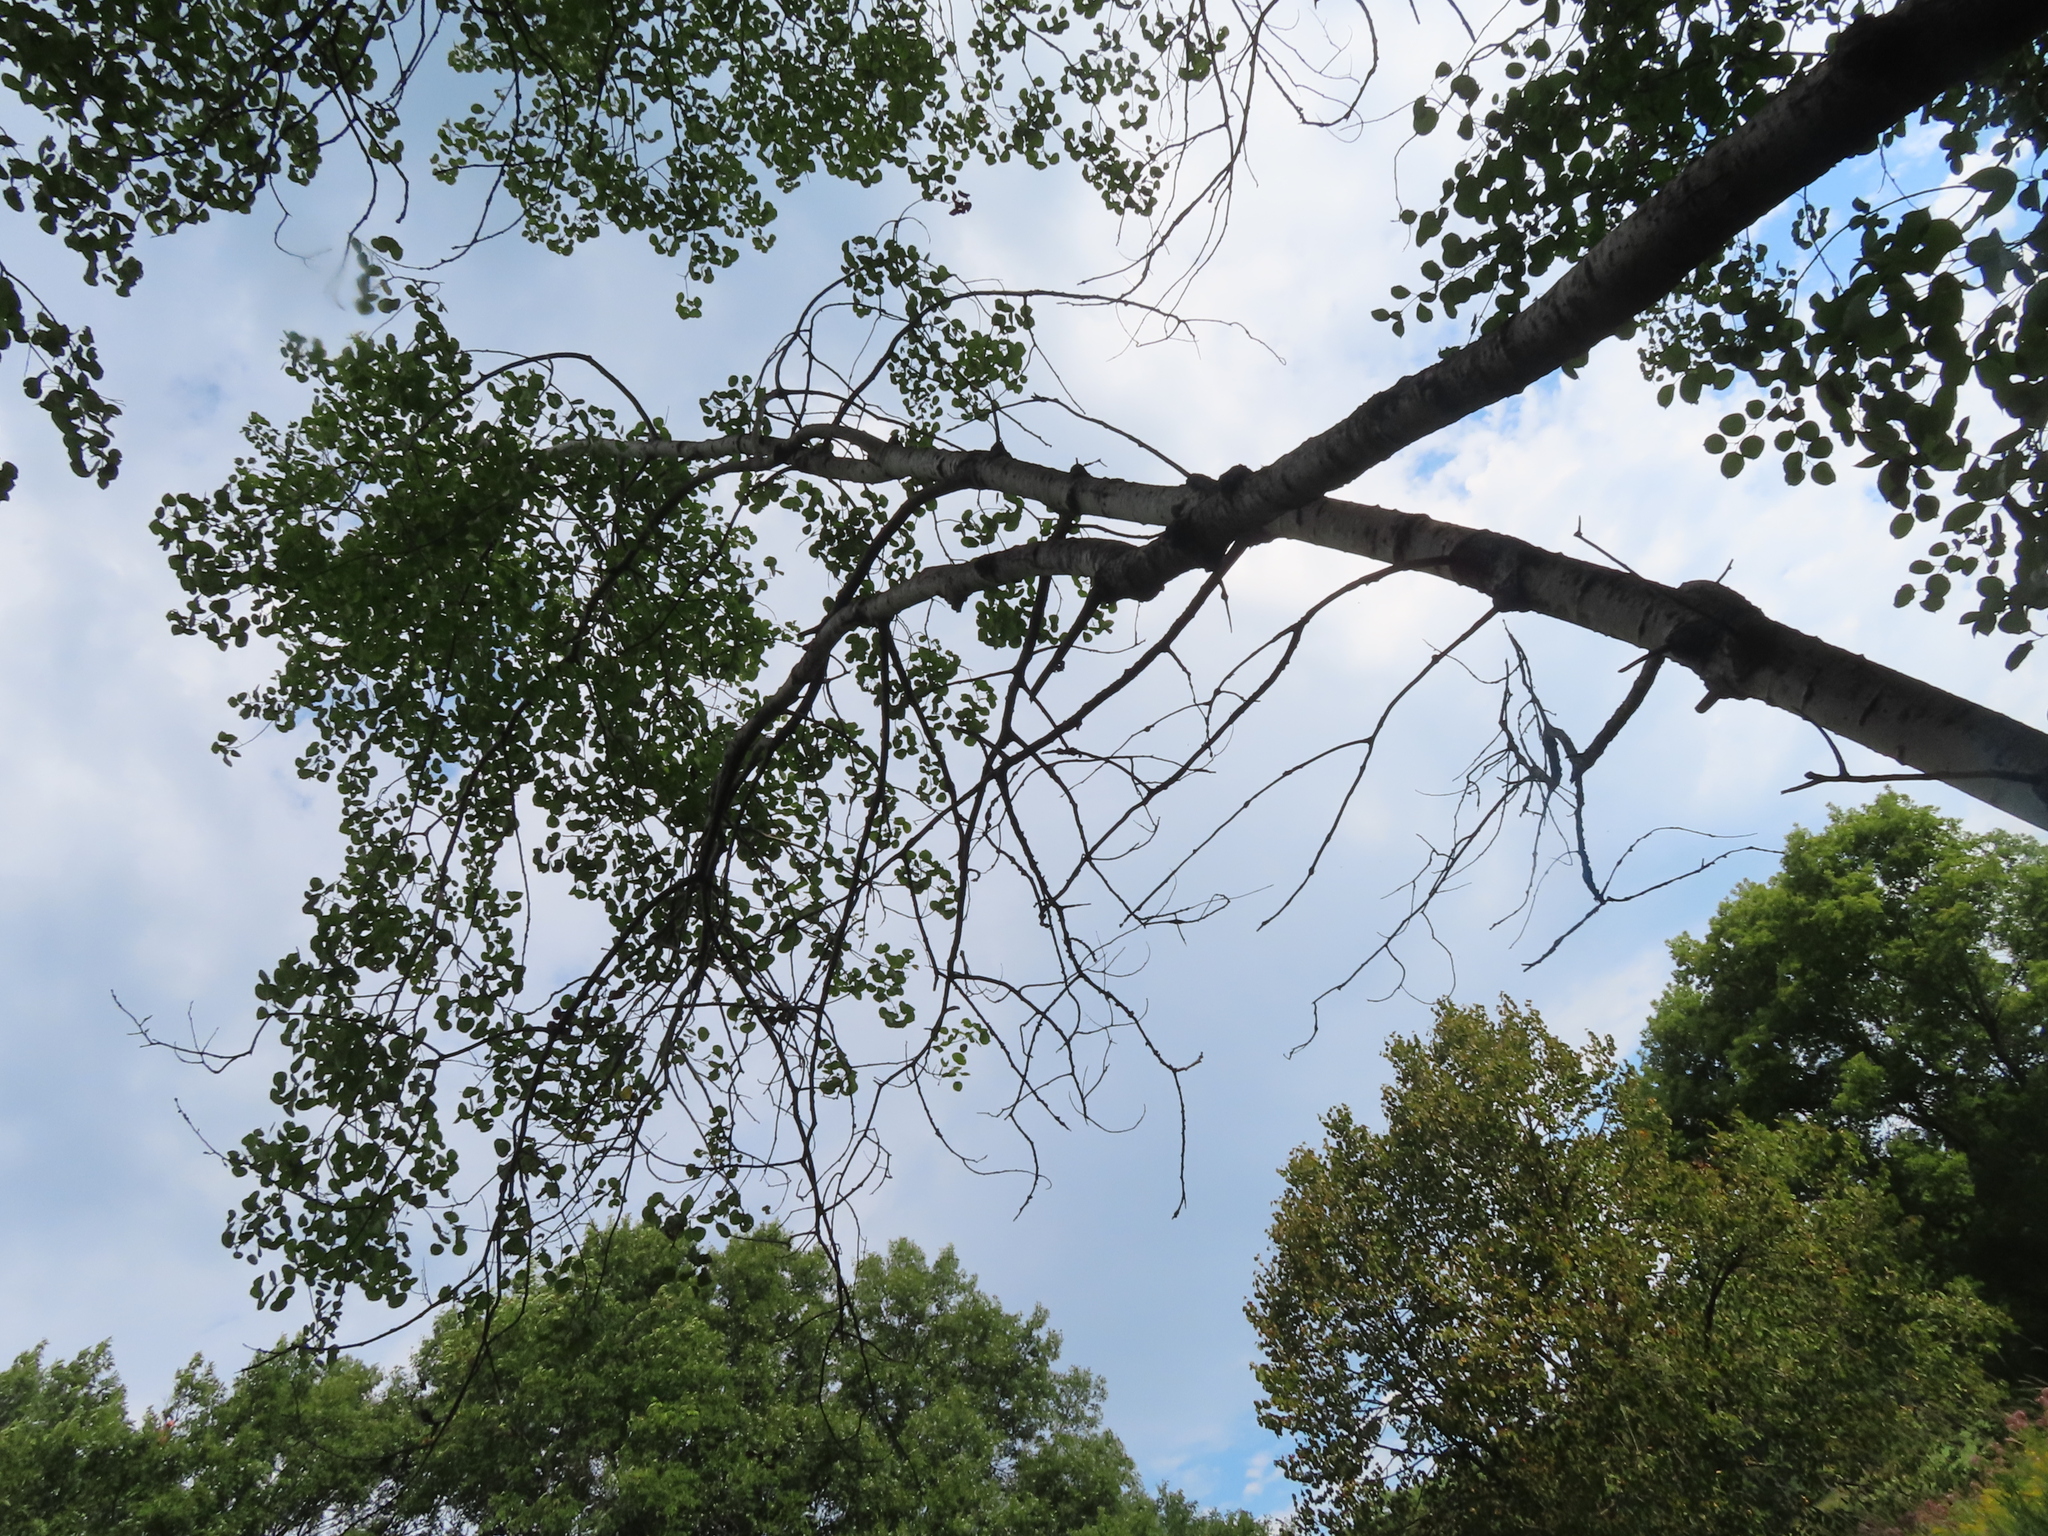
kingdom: Plantae
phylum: Tracheophyta
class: Magnoliopsida
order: Malpighiales
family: Salicaceae
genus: Populus
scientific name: Populus tremuloides
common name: Quaking aspen
